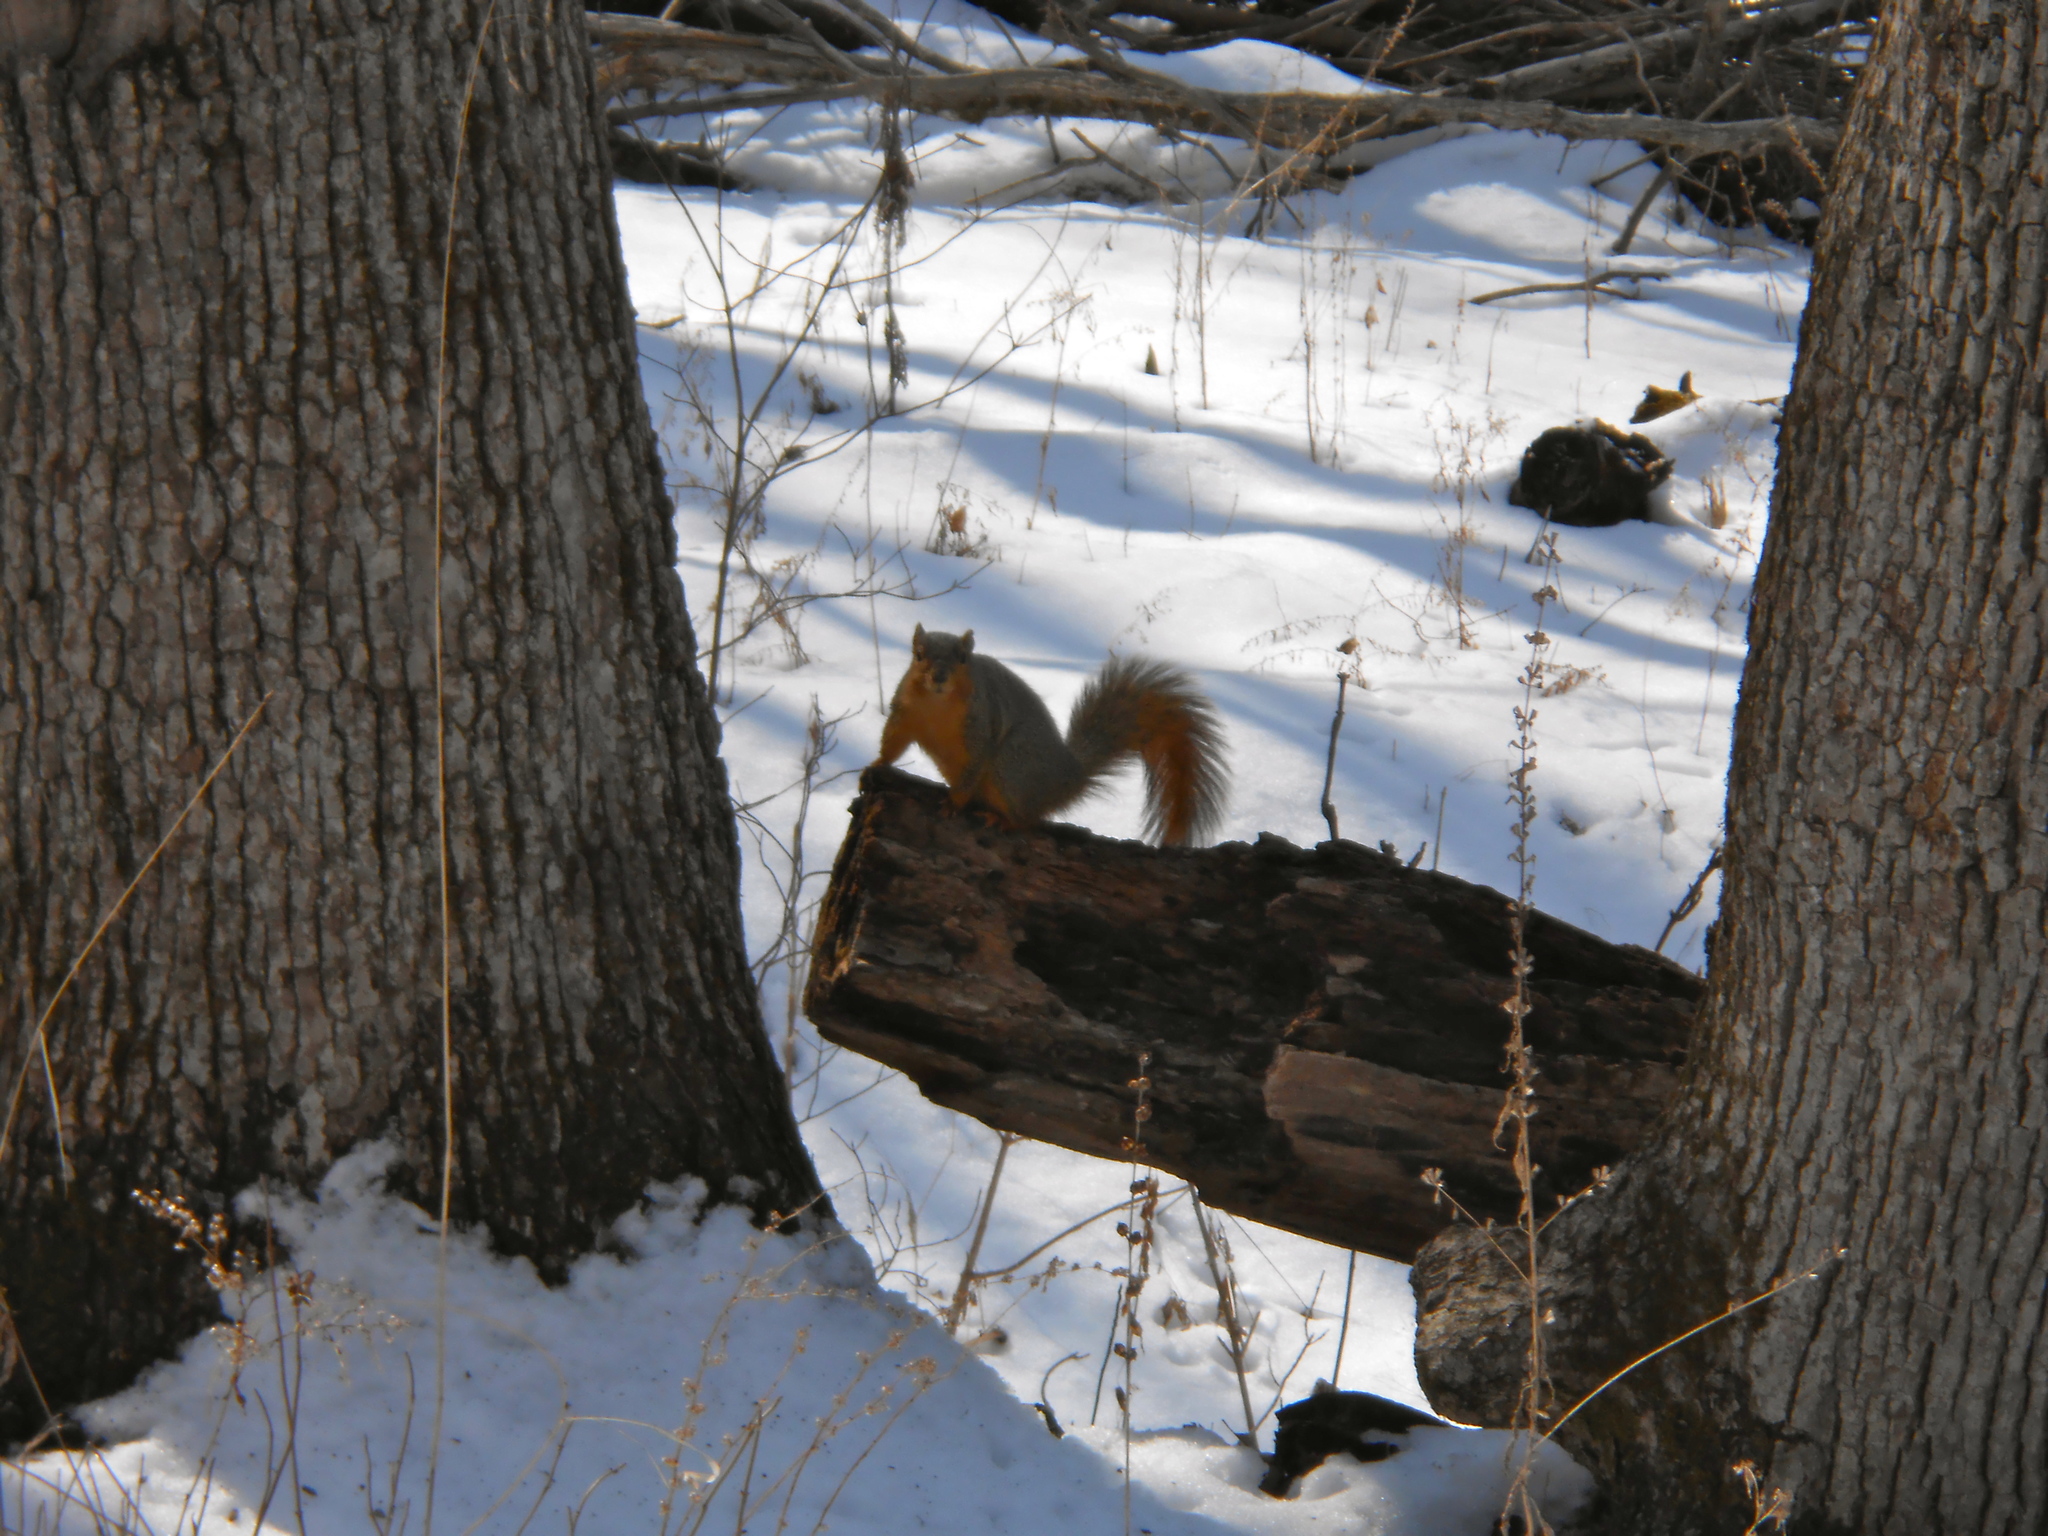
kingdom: Animalia
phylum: Chordata
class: Mammalia
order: Rodentia
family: Sciuridae
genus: Sciurus
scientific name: Sciurus niger
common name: Fox squirrel
